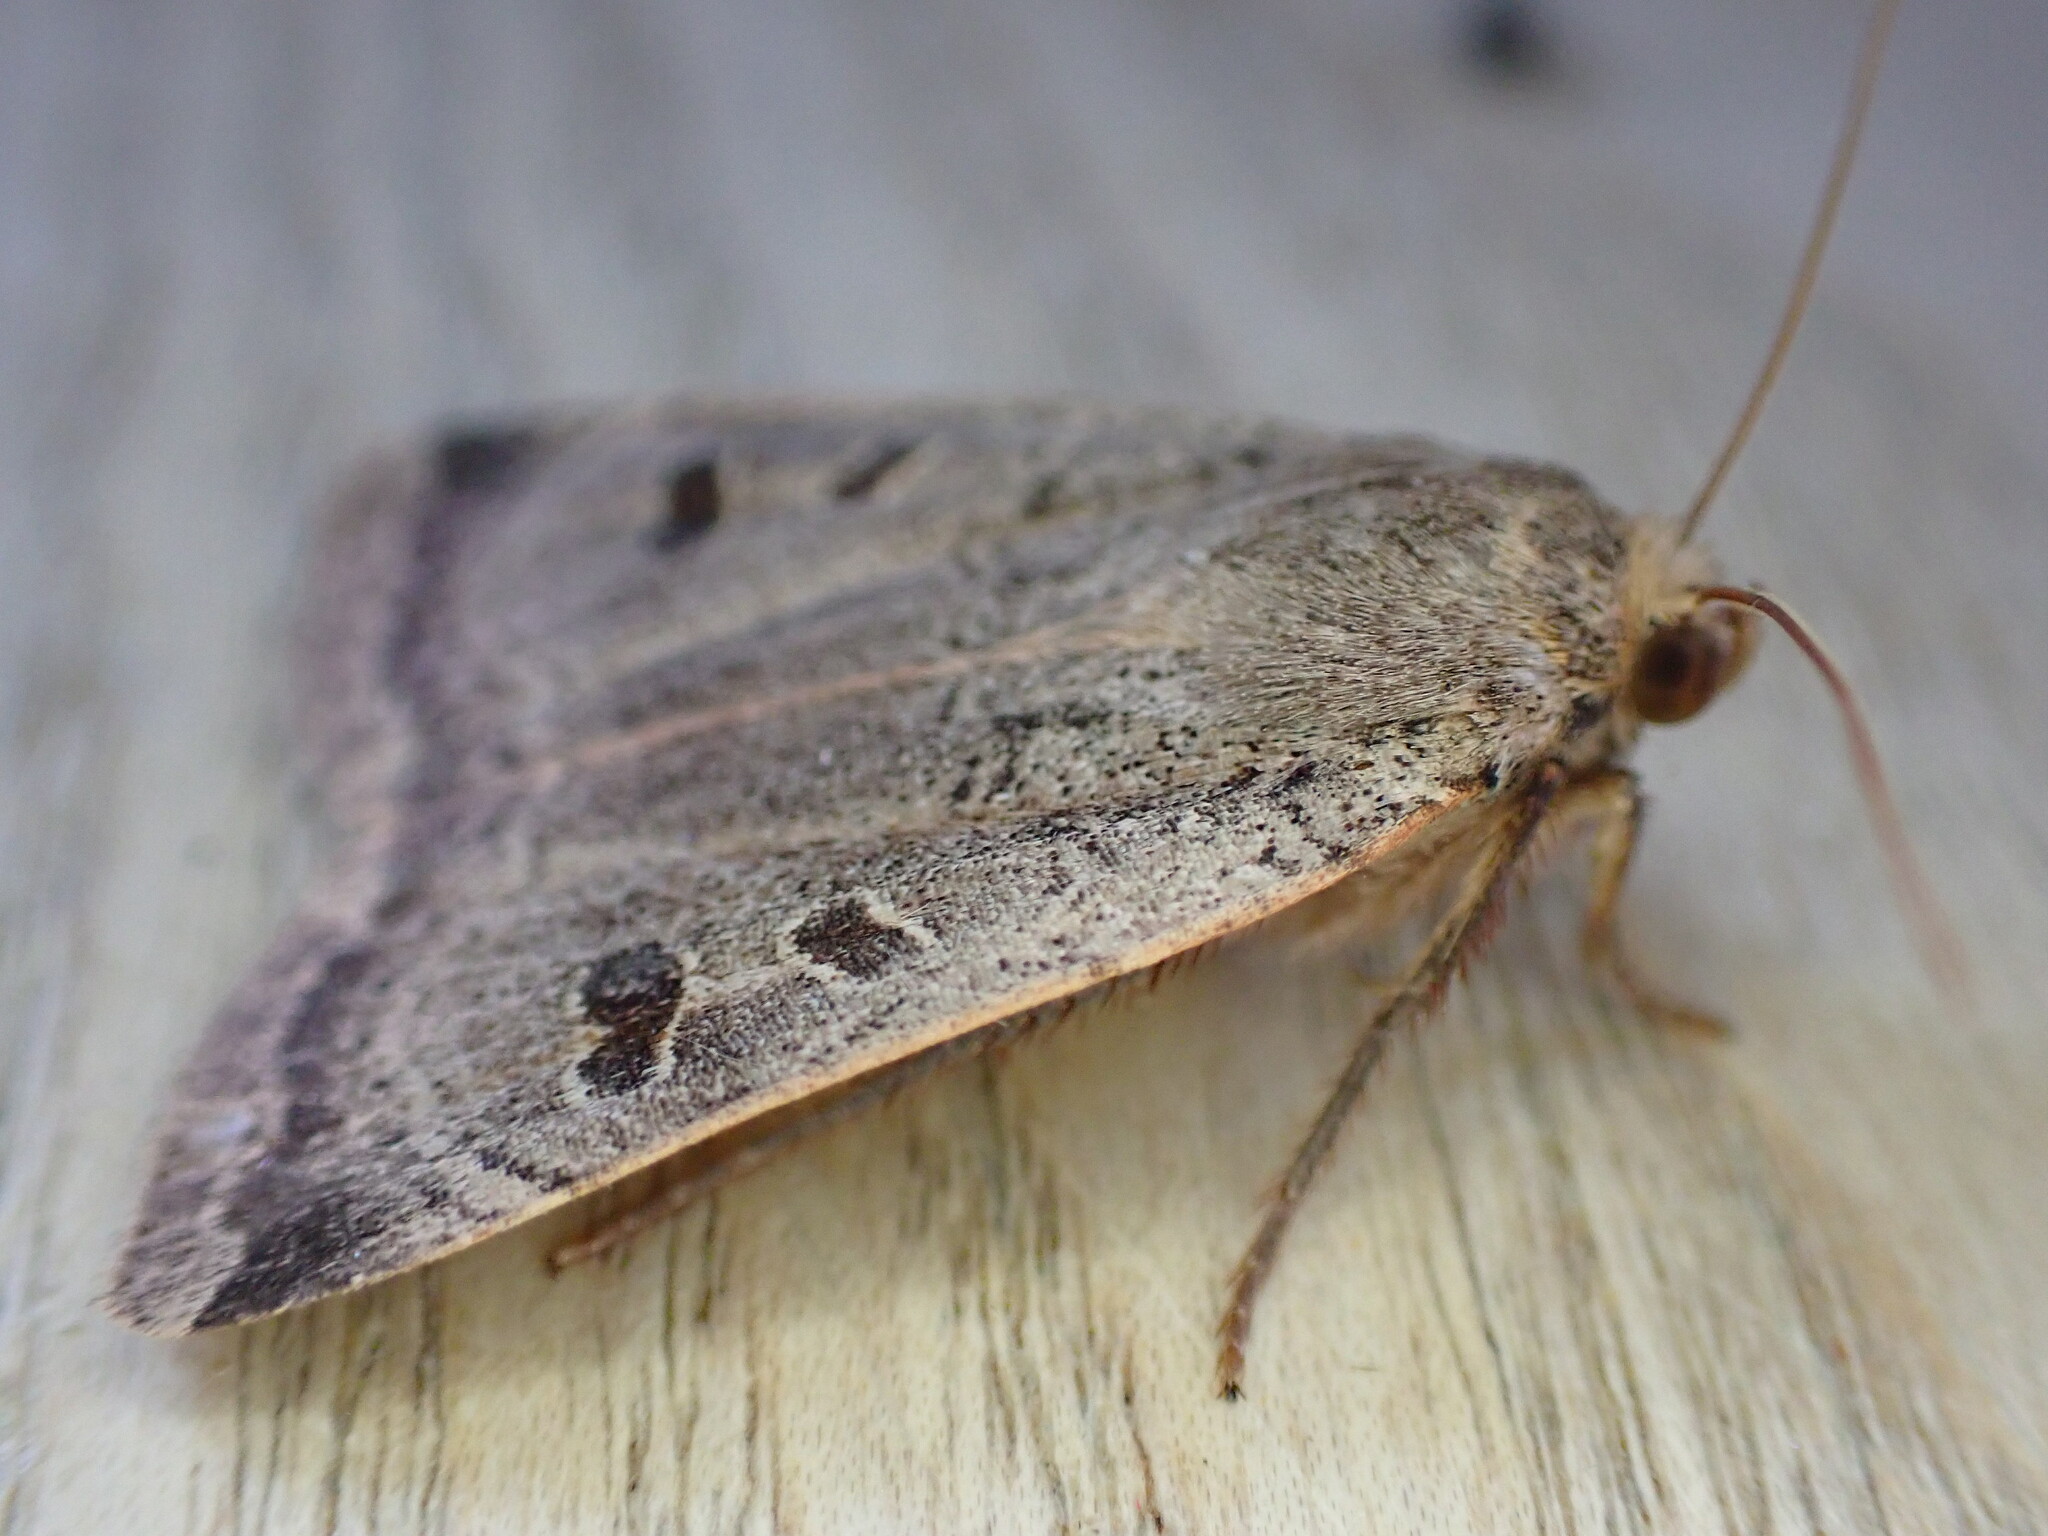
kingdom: Animalia
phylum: Arthropoda
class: Insecta
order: Lepidoptera
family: Noctuidae
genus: Noctua
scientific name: Noctua comes
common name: Lesser yellow underwing
